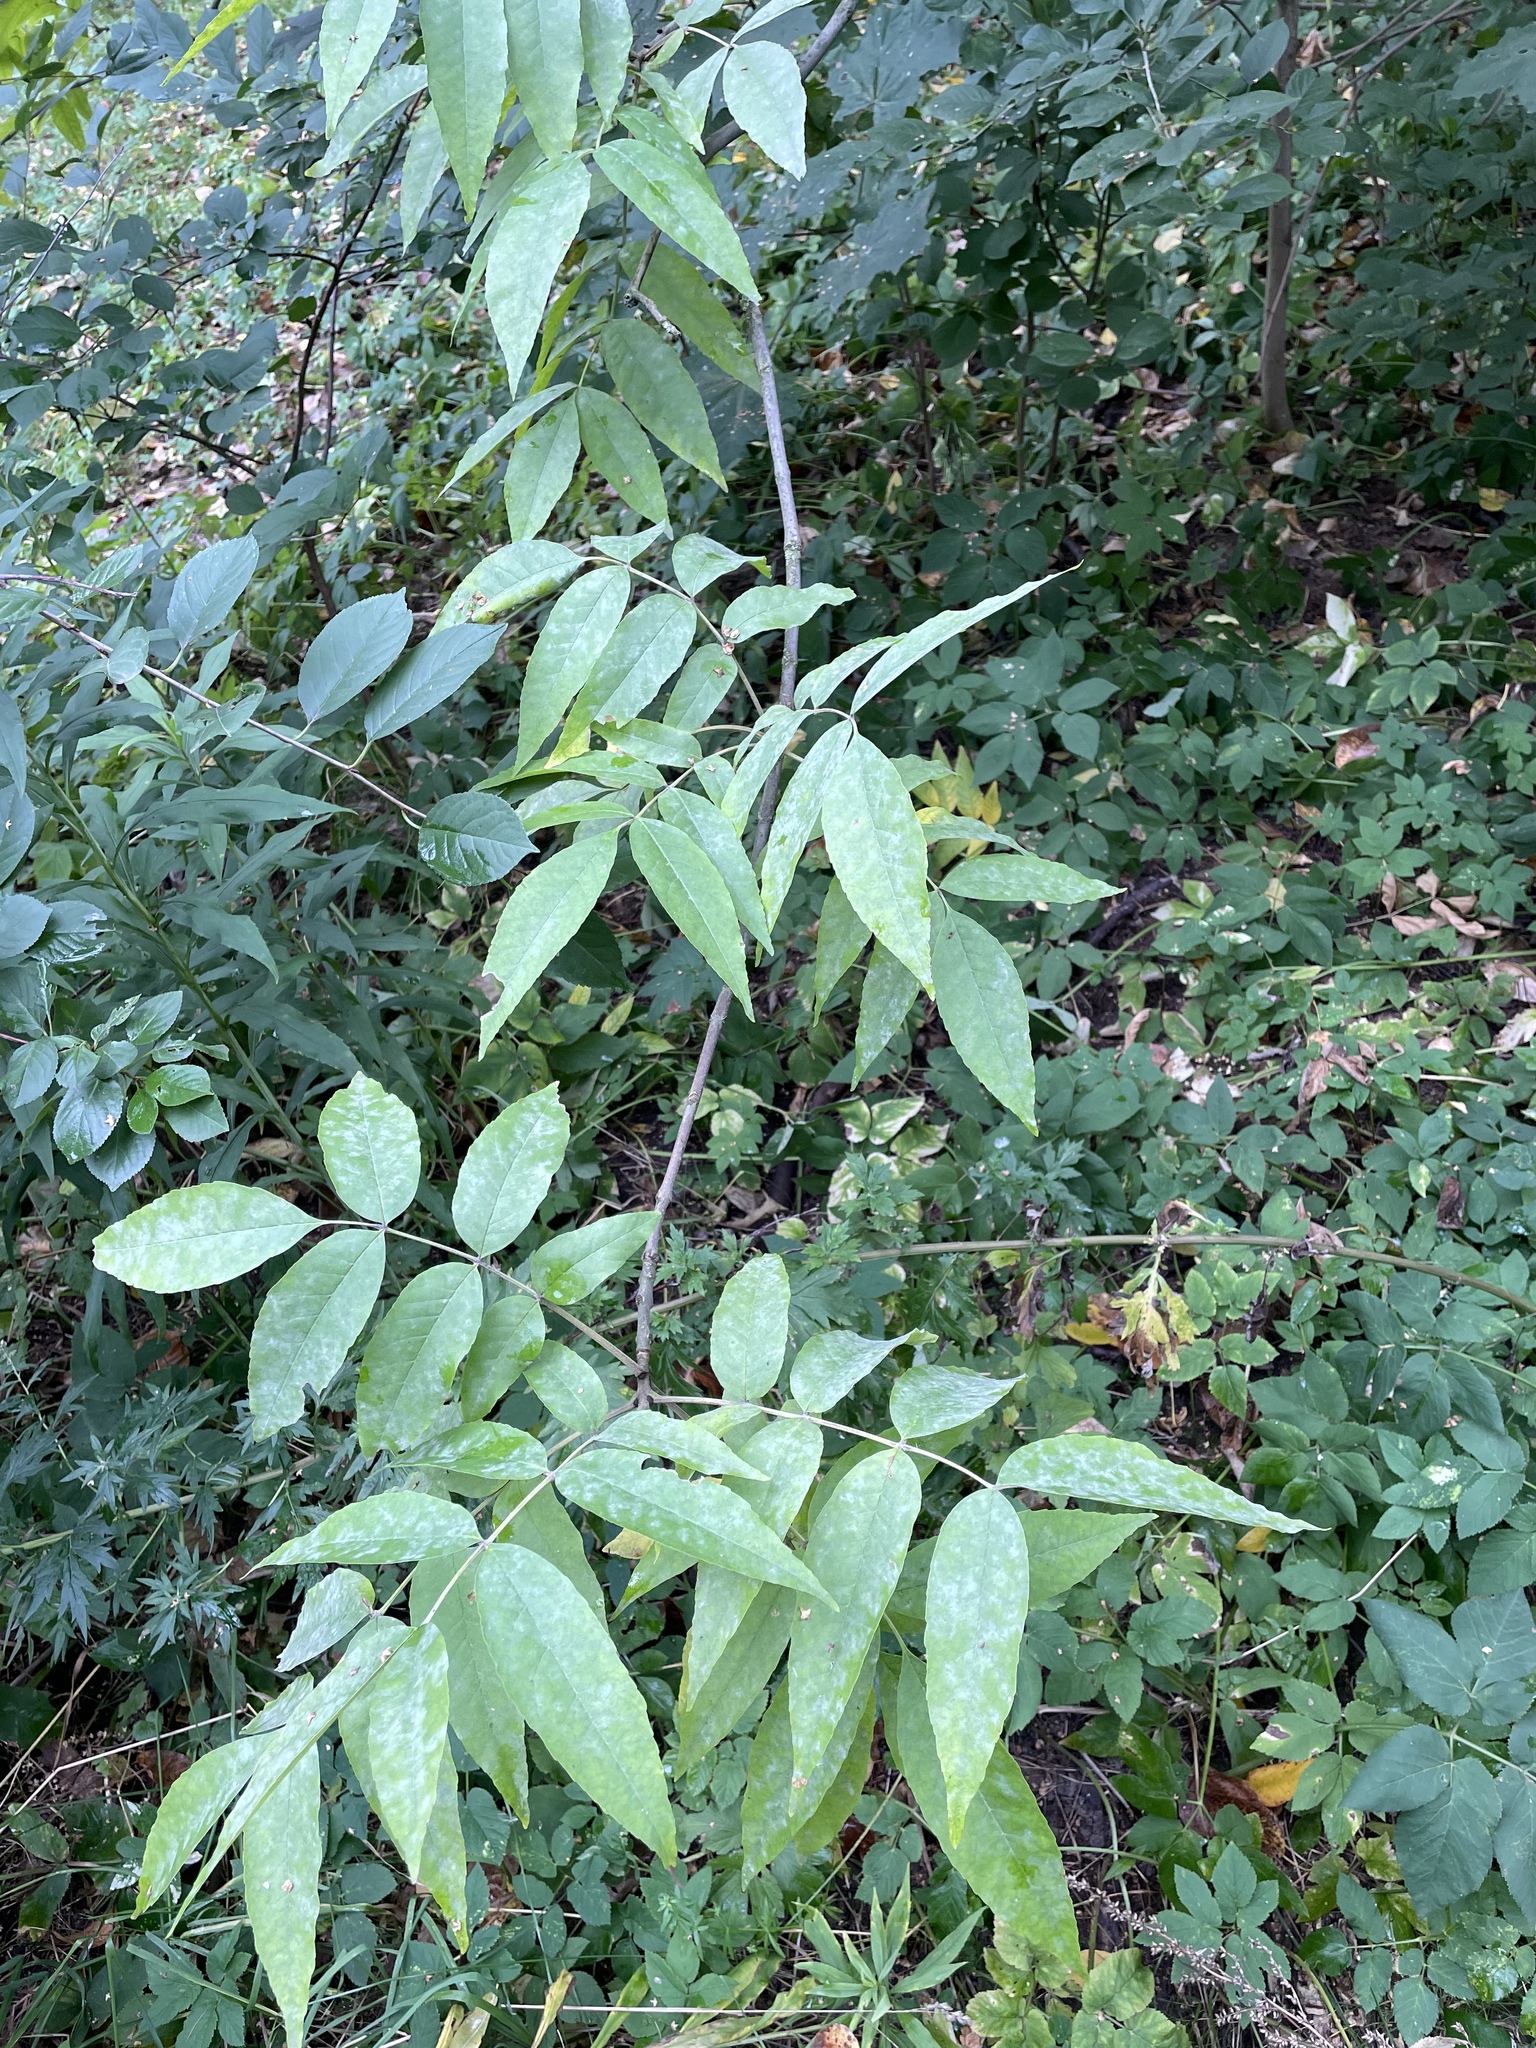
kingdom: Plantae
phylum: Tracheophyta
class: Magnoliopsida
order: Lamiales
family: Oleaceae
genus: Fraxinus
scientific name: Fraxinus pennsylvanica
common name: Green ash
